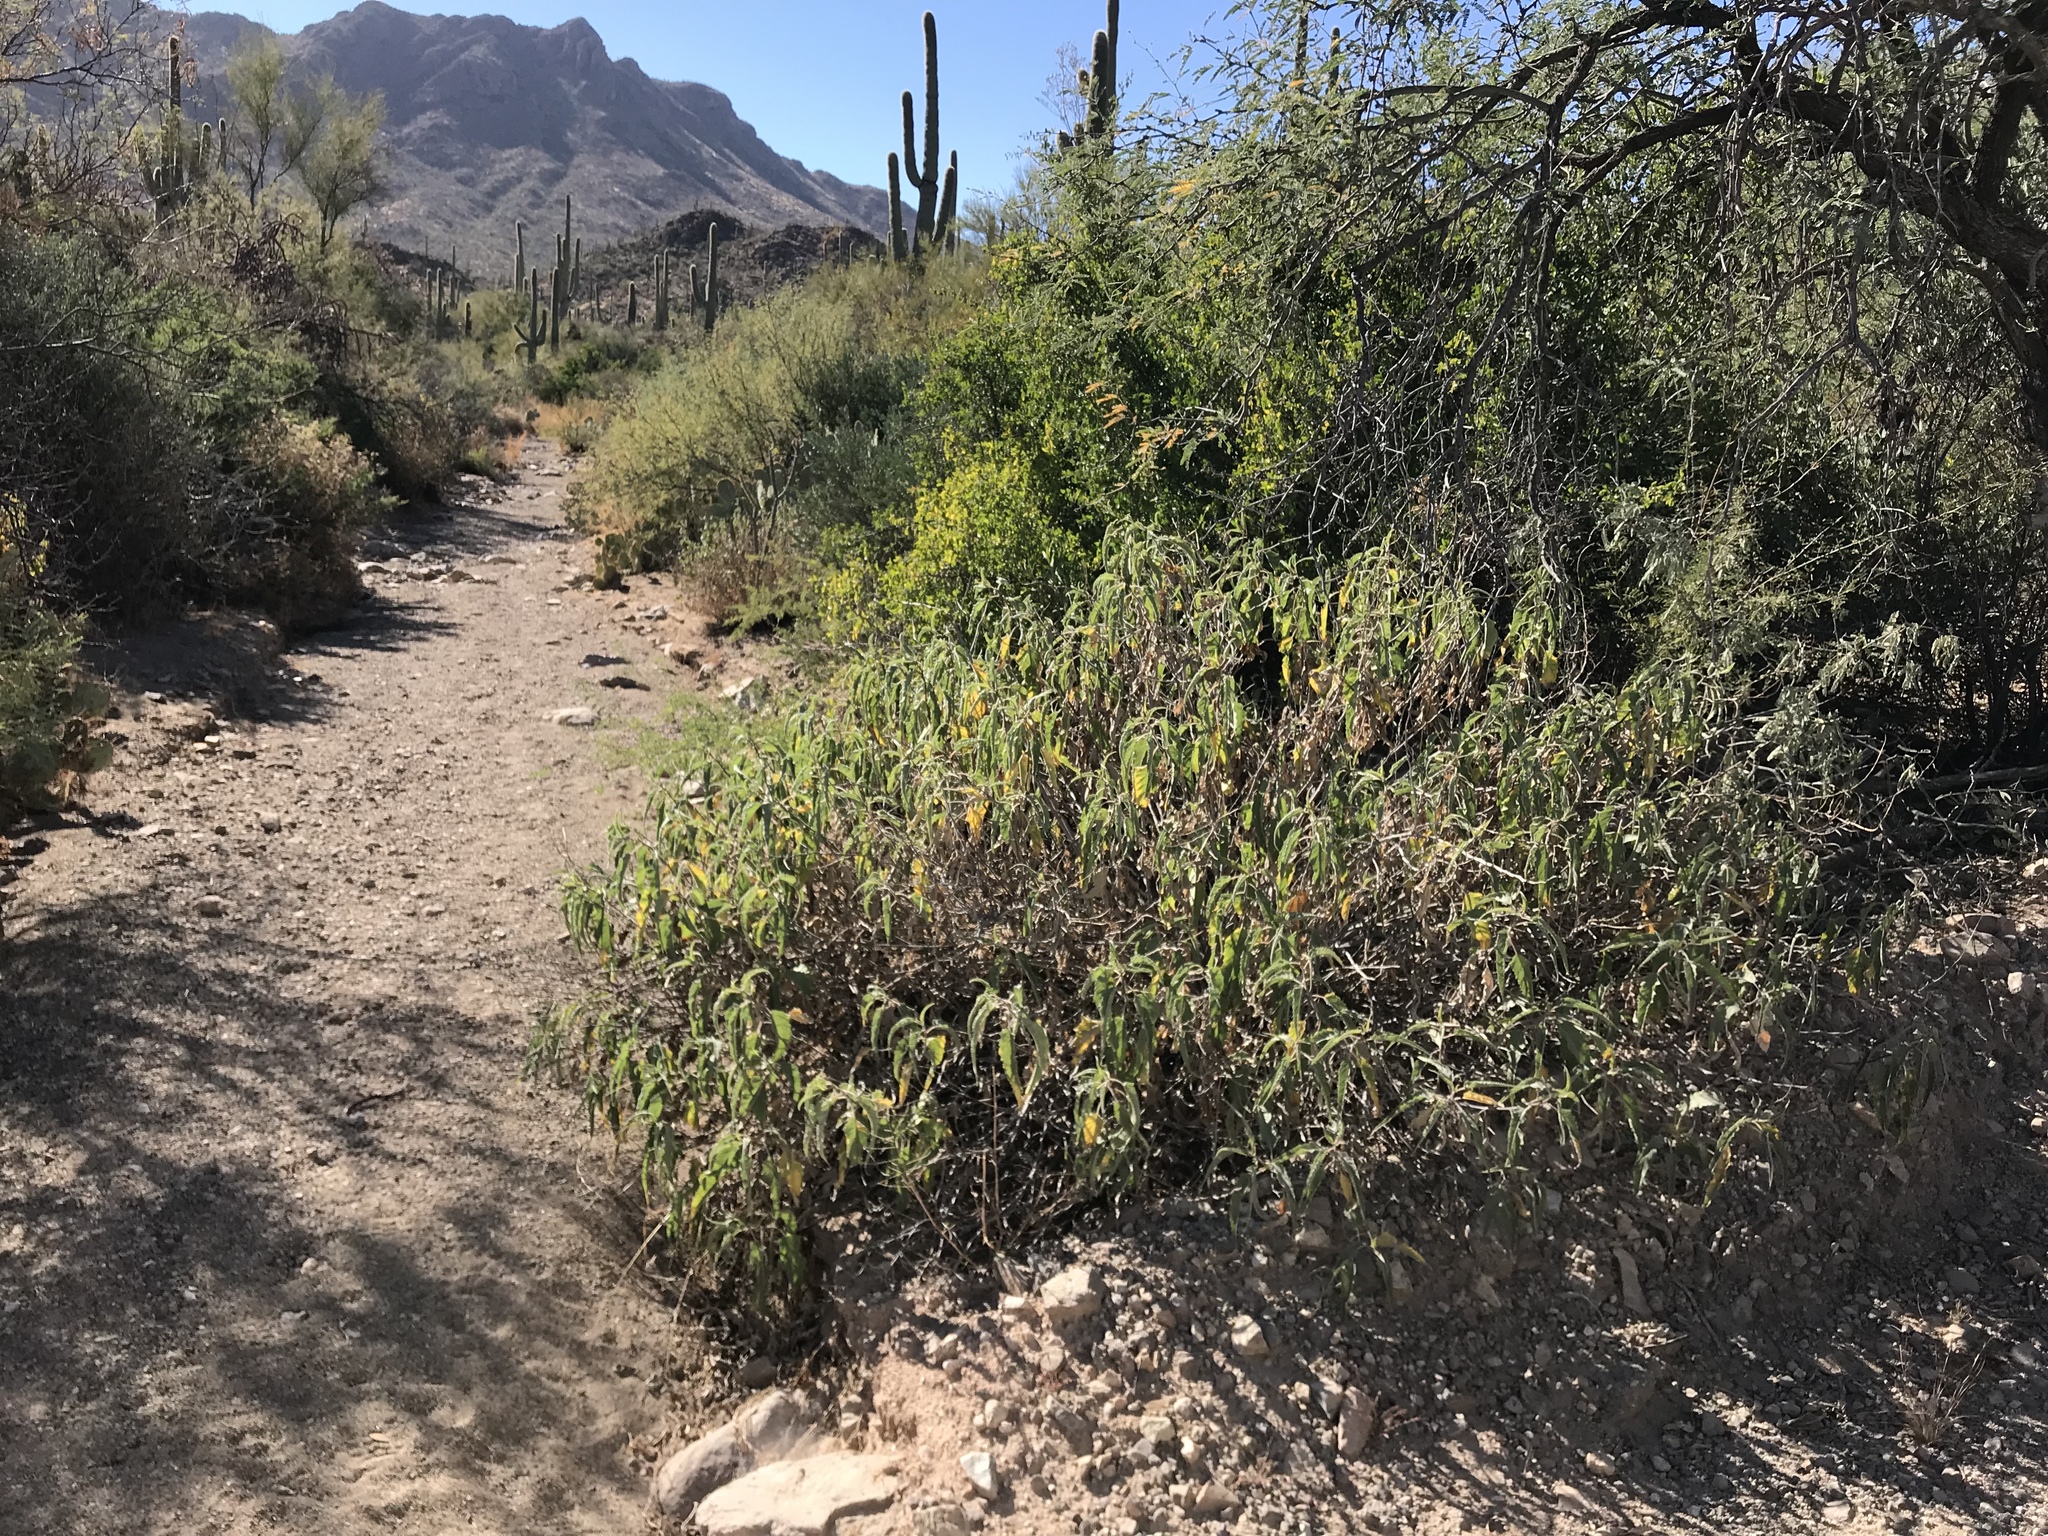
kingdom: Plantae
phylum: Tracheophyta
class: Magnoliopsida
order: Asterales
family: Asteraceae
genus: Ambrosia
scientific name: Ambrosia ambrosioides
